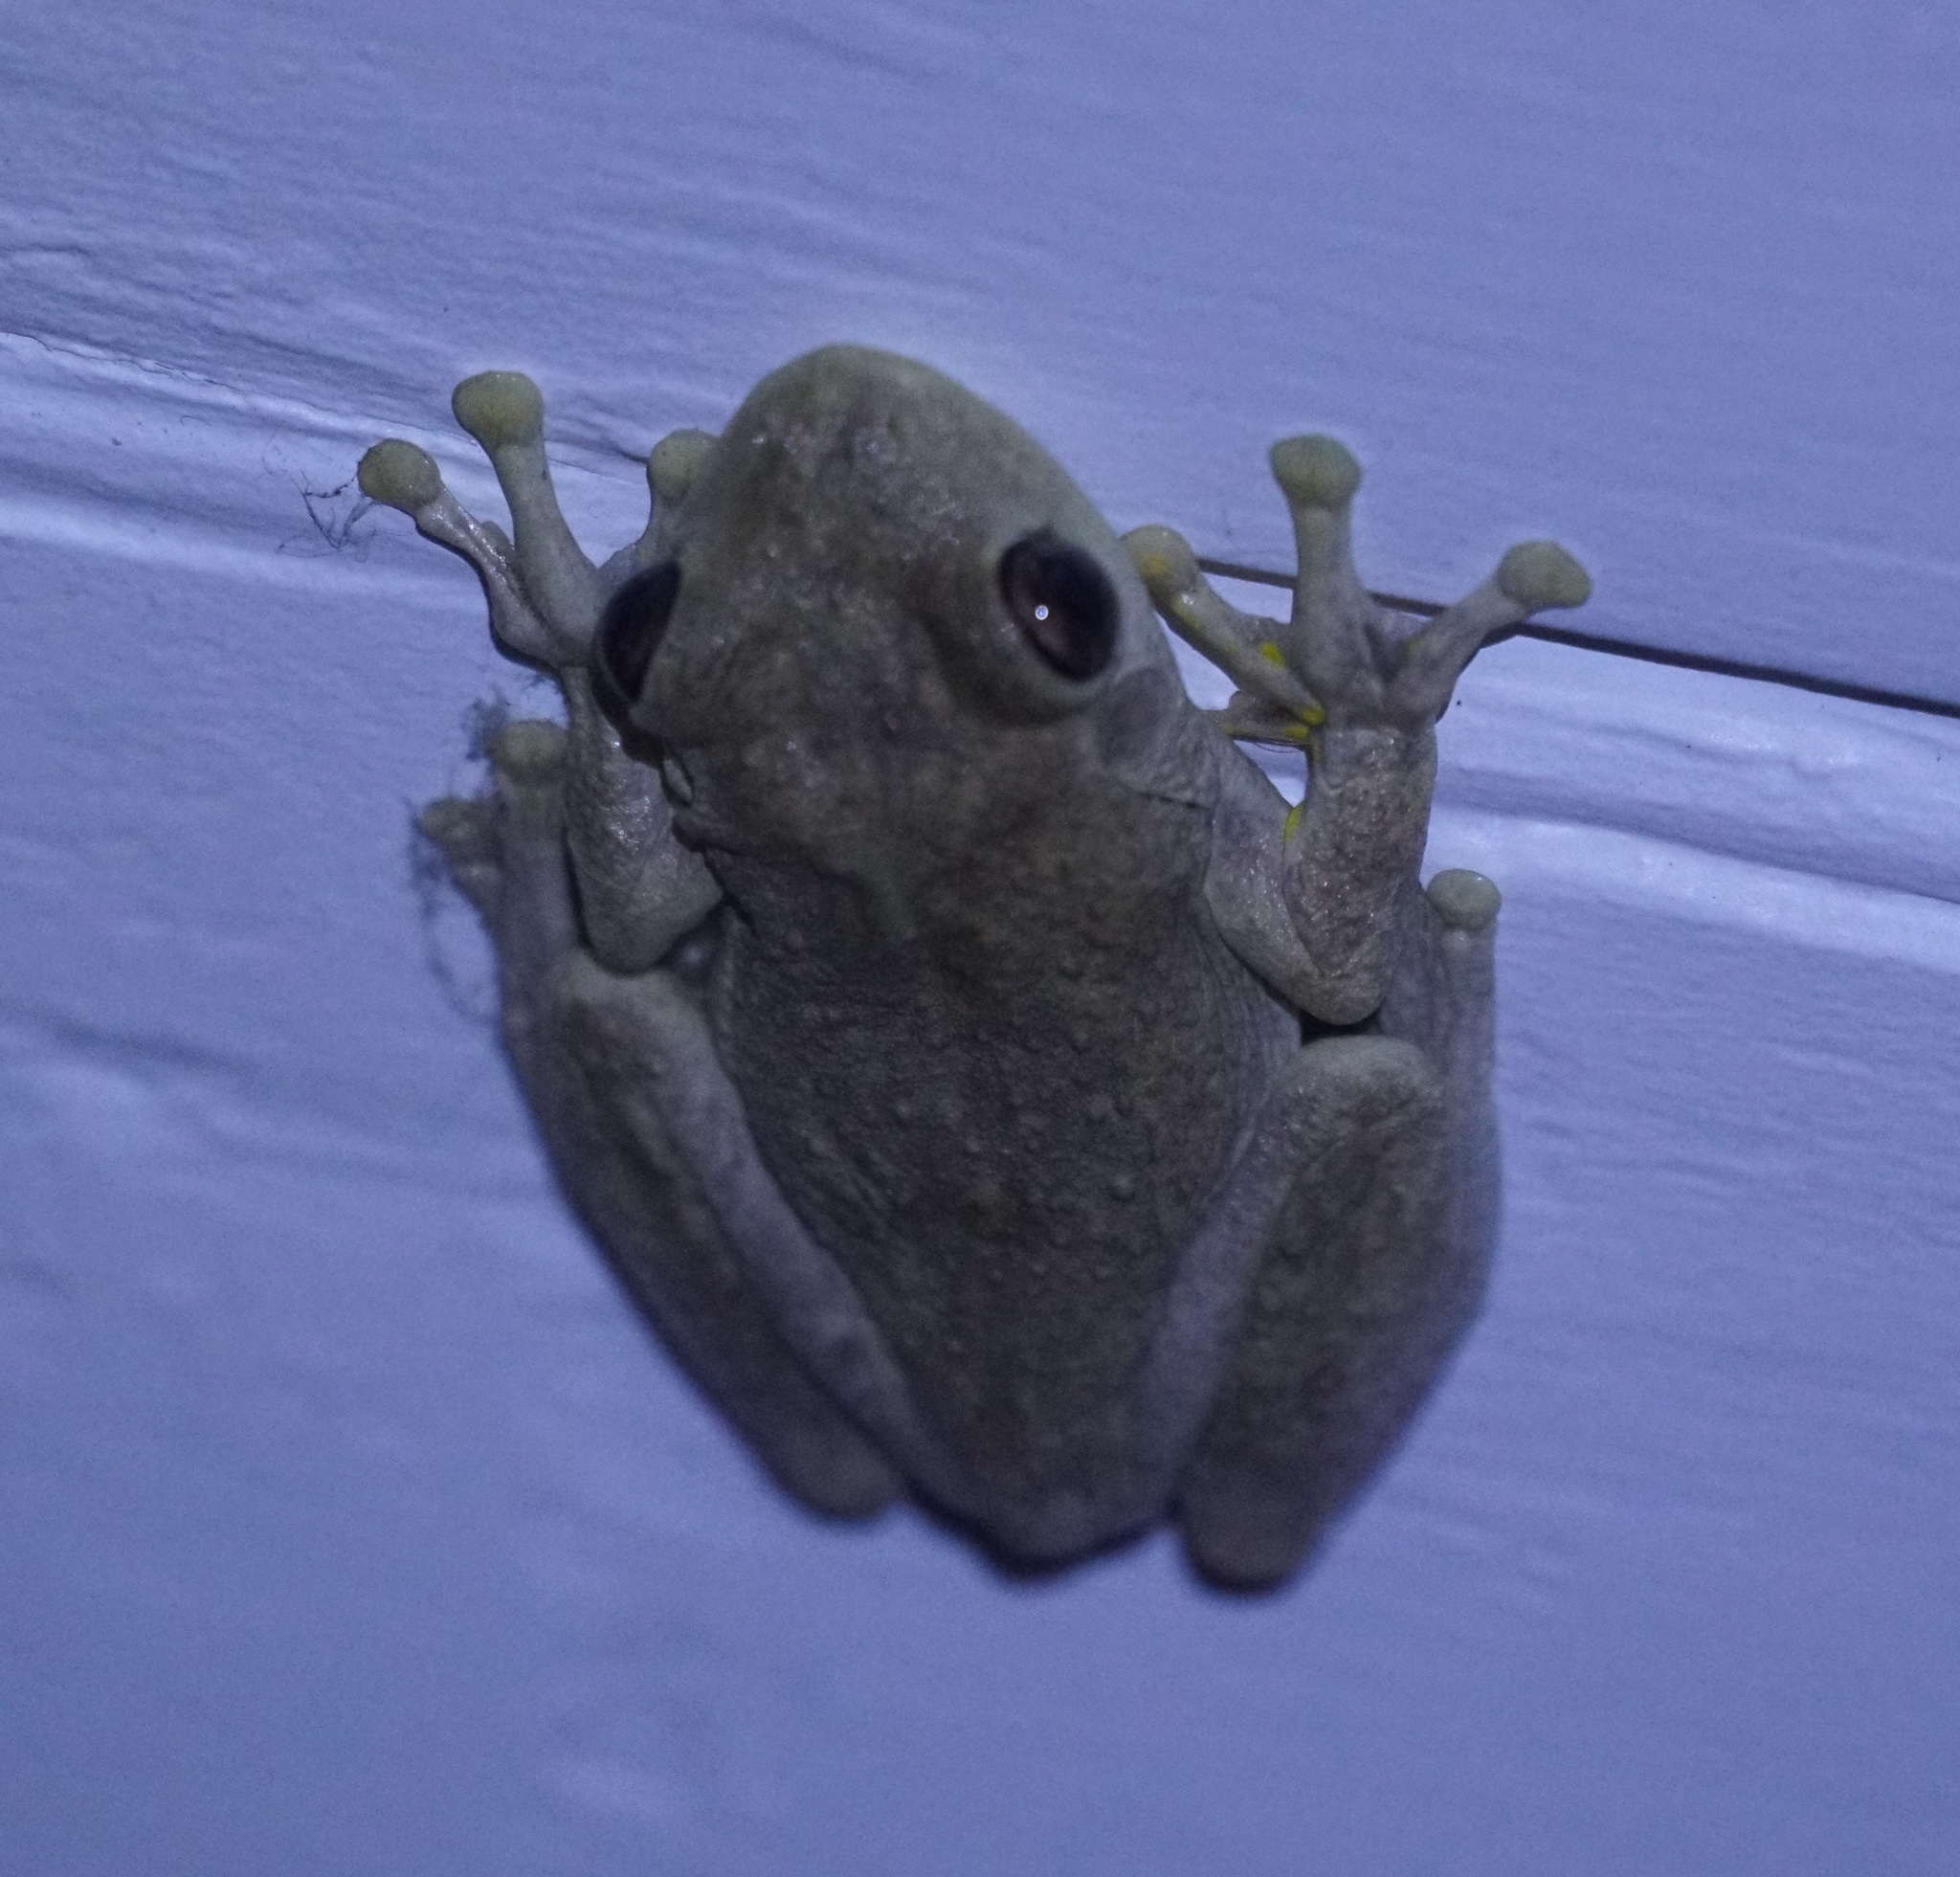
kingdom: Animalia
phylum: Chordata
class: Amphibia
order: Anura
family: Pelodryadidae
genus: Litoria
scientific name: Litoria rothii
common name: Roth’s tree frog
